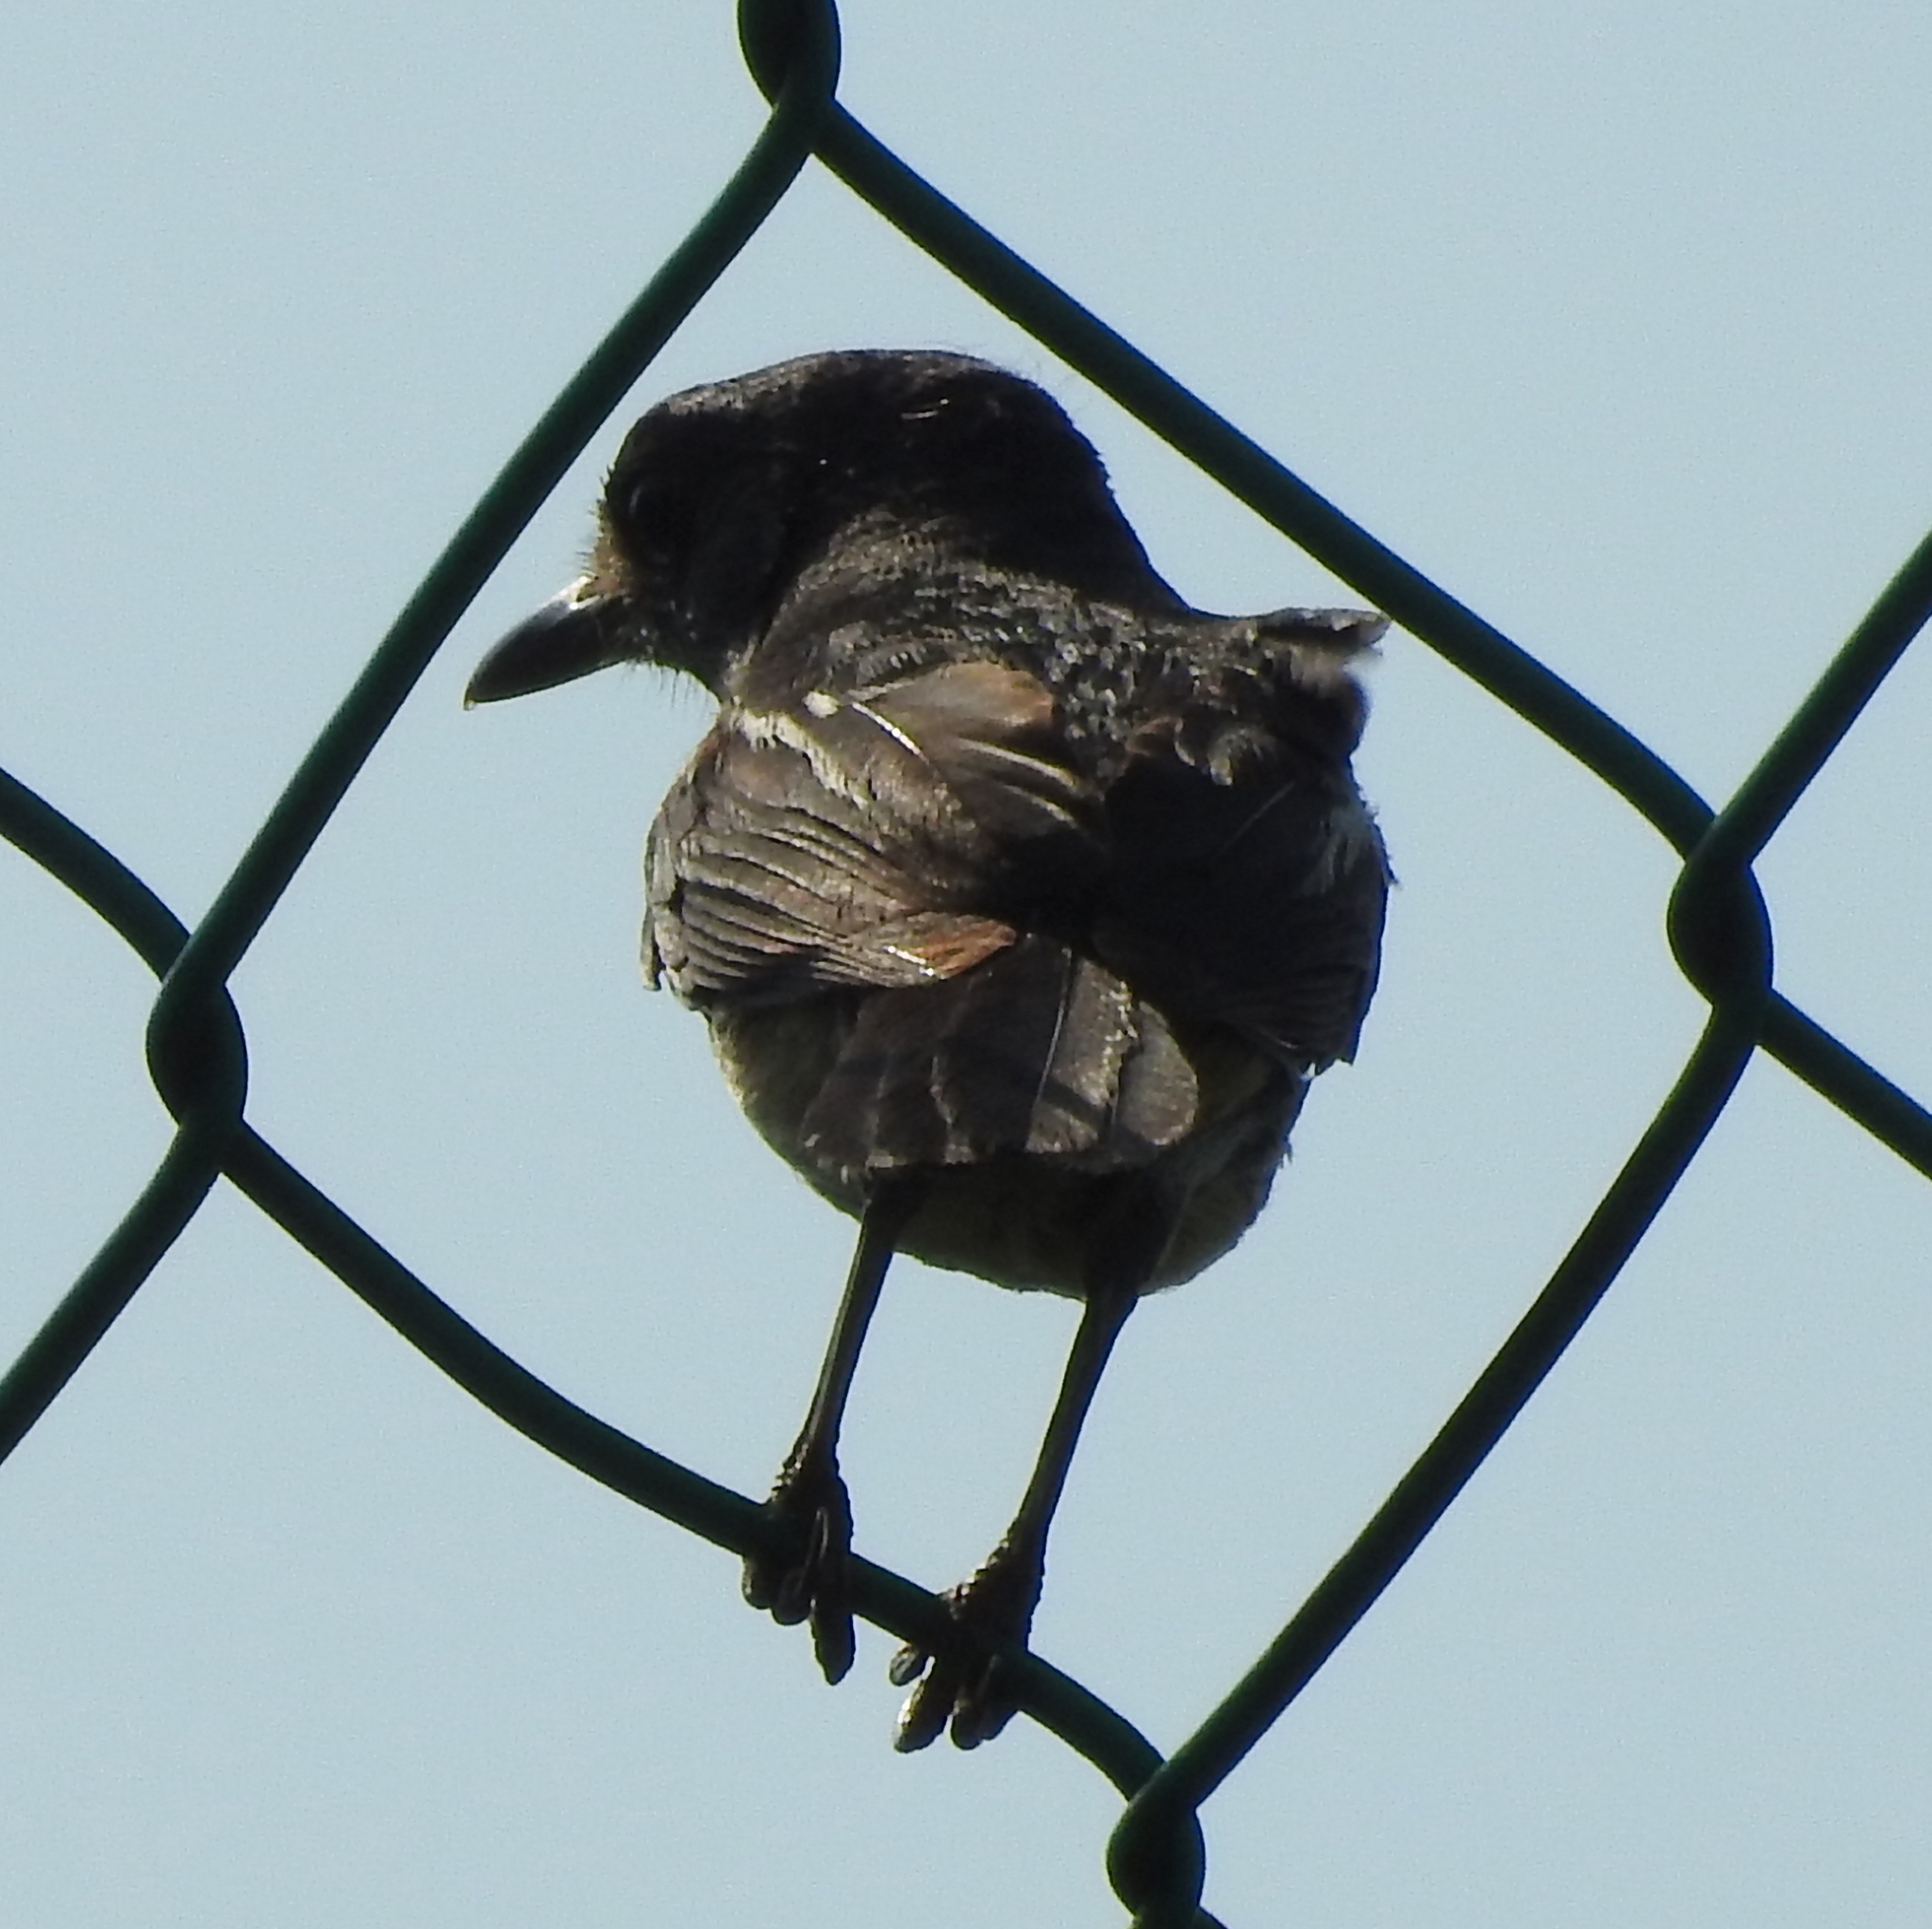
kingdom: Animalia
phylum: Chordata
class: Aves
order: Passeriformes
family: Muscicapidae
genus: Copsychus
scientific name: Copsychus saularis
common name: Oriental magpie-robin
